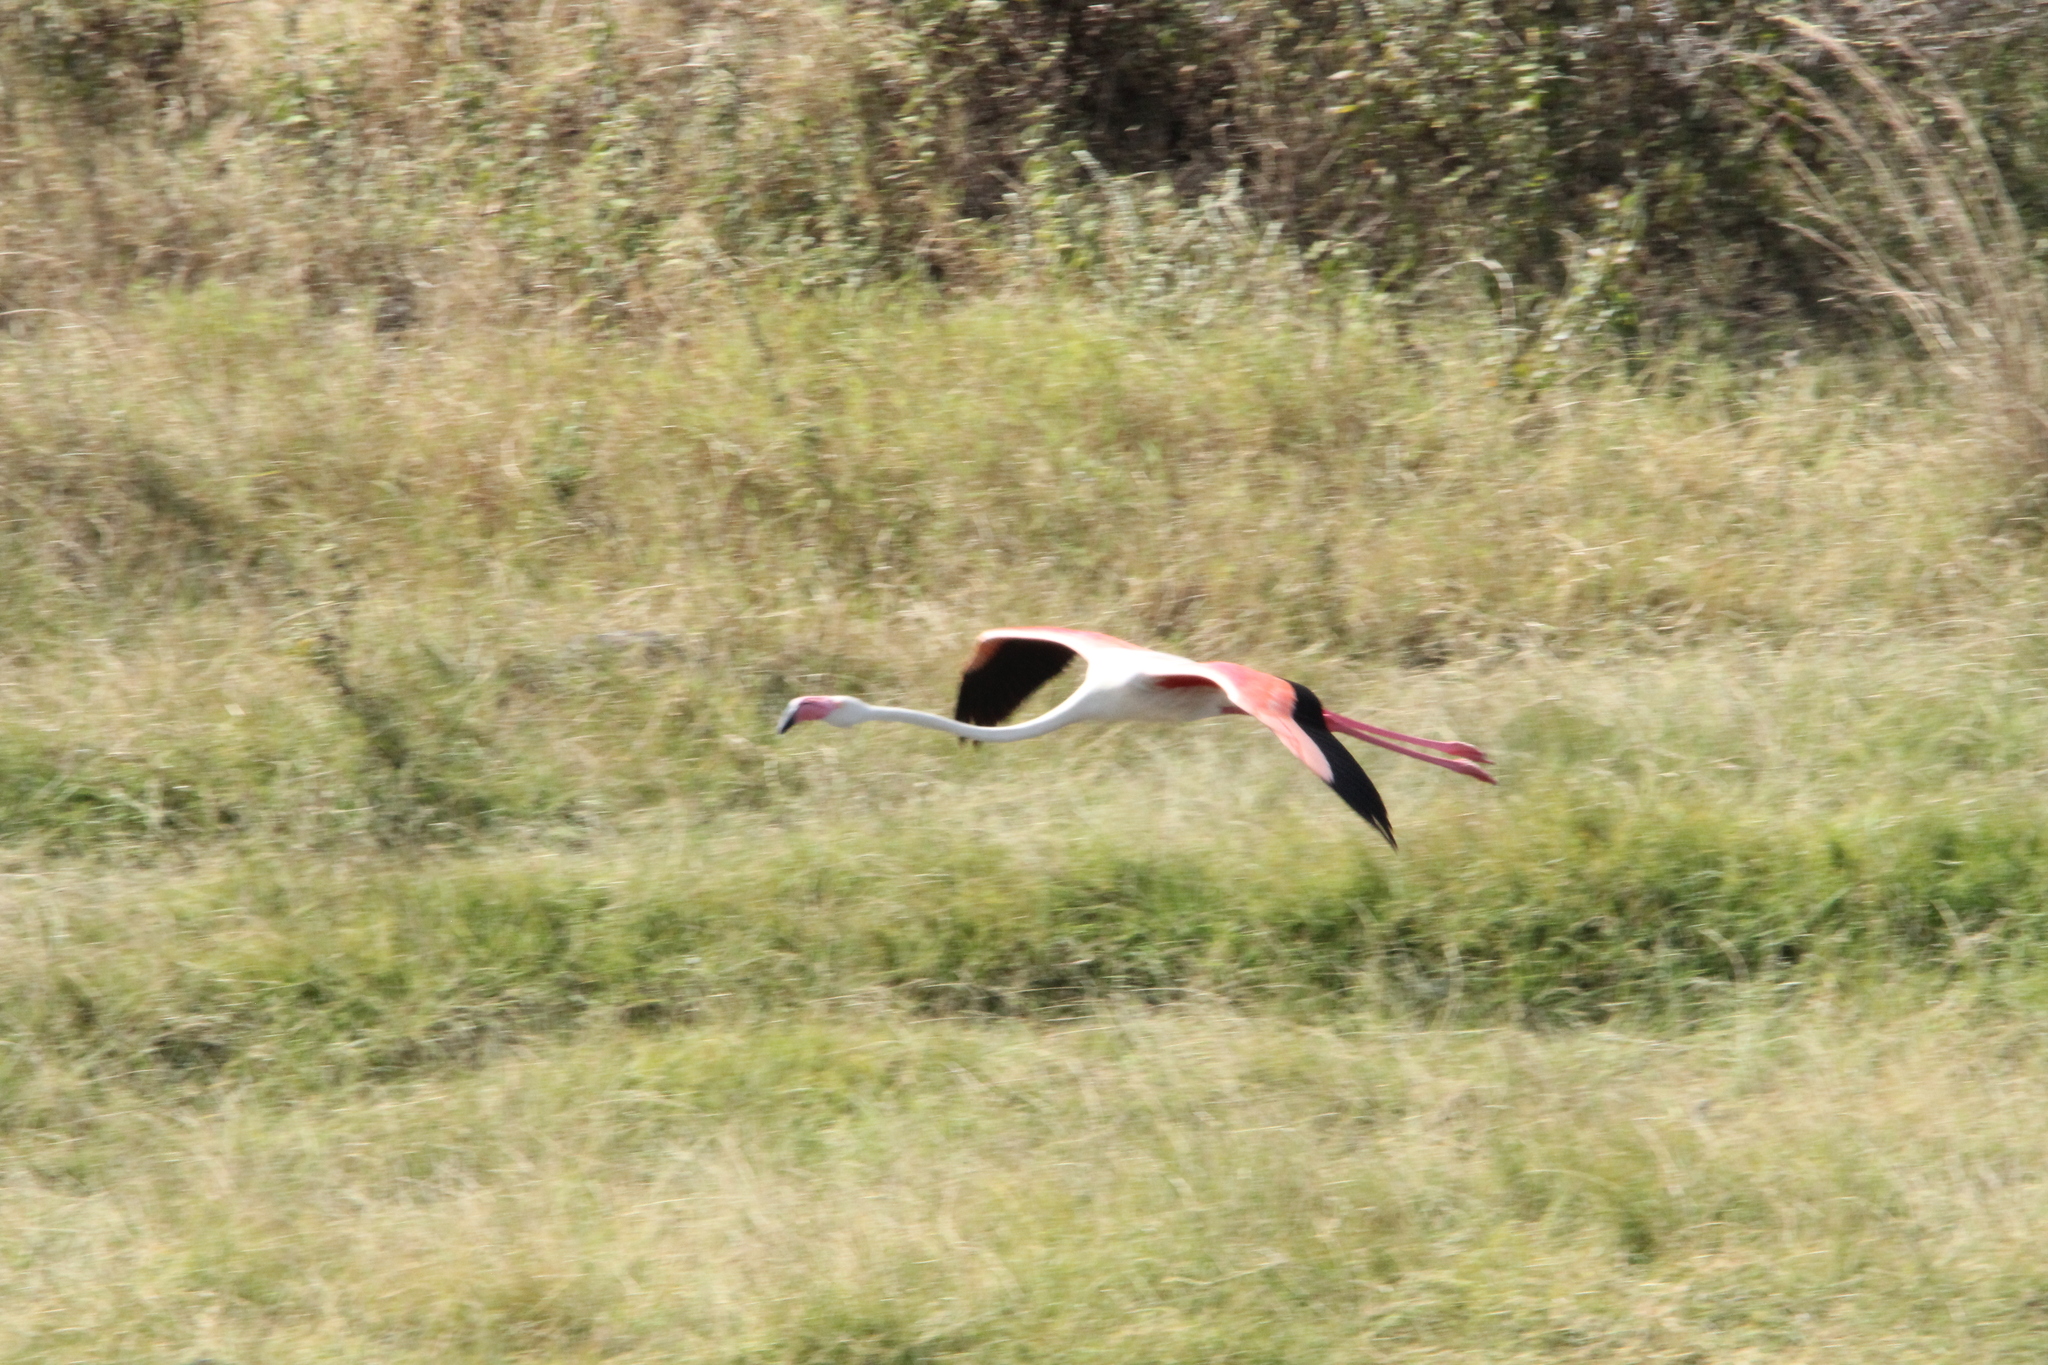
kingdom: Animalia
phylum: Chordata
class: Aves
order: Phoenicopteriformes
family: Phoenicopteridae
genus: Phoenicopterus
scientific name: Phoenicopterus roseus
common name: Greater flamingo
